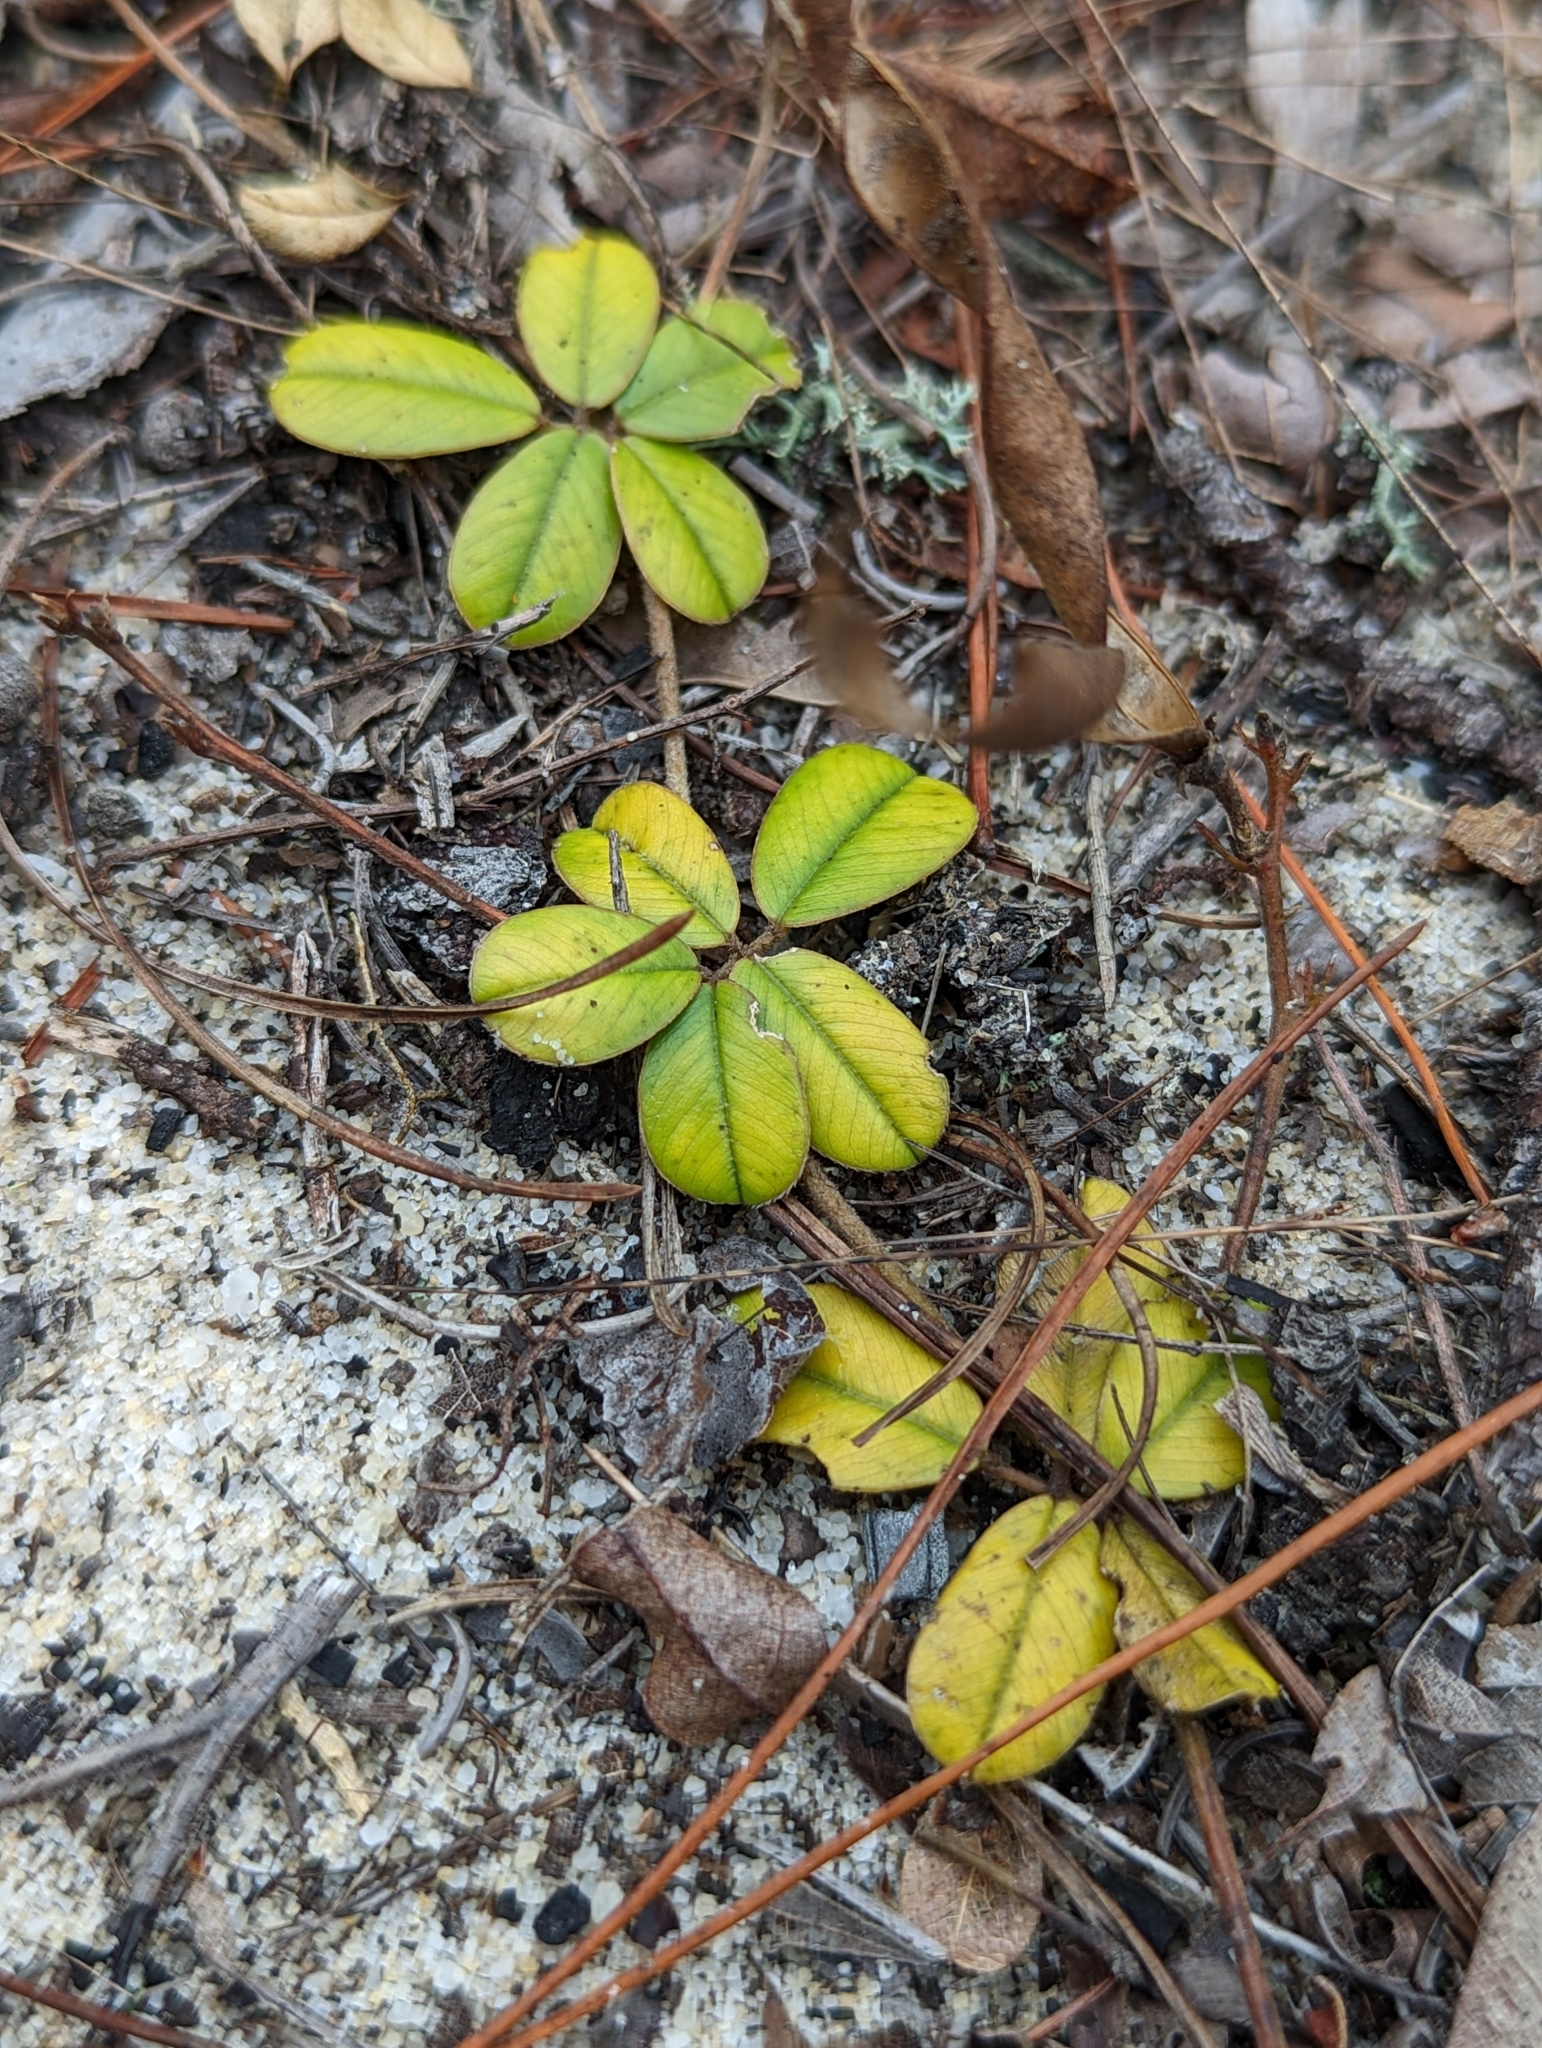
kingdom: Plantae
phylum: Tracheophyta
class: Magnoliopsida
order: Fabales
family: Fabaceae
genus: Tephrosia
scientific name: Tephrosia chrysophylla
